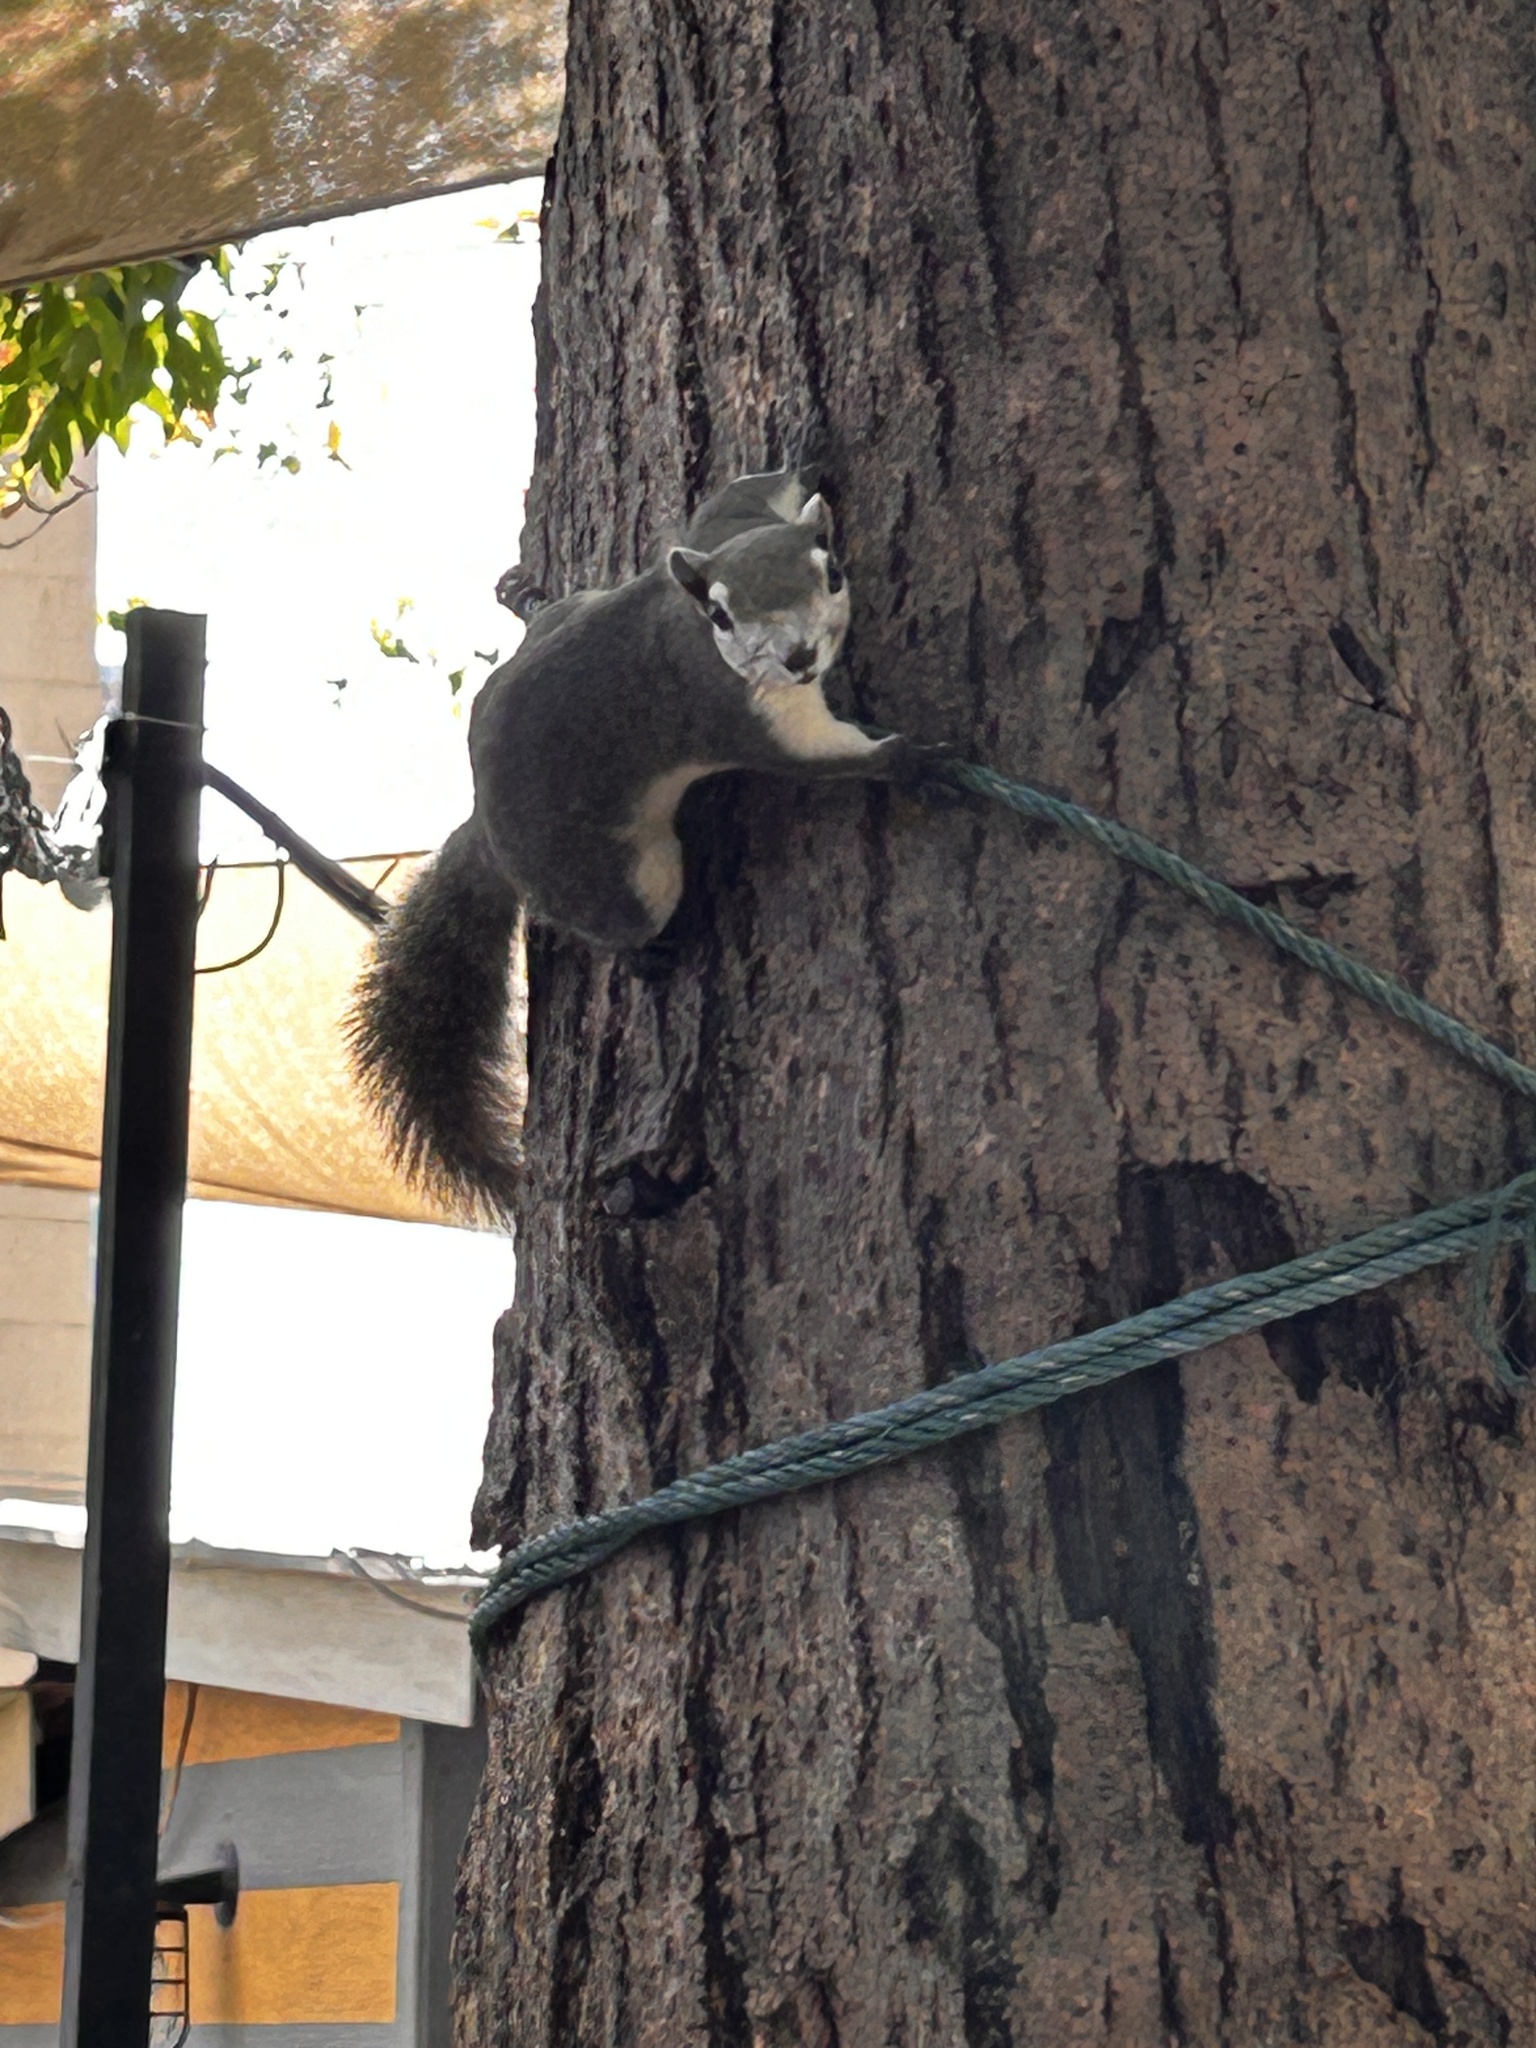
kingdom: Animalia
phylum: Chordata
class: Mammalia
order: Rodentia
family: Sciuridae
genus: Callosciurus
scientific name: Callosciurus finlaysonii
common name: Finlayson's squirrel
